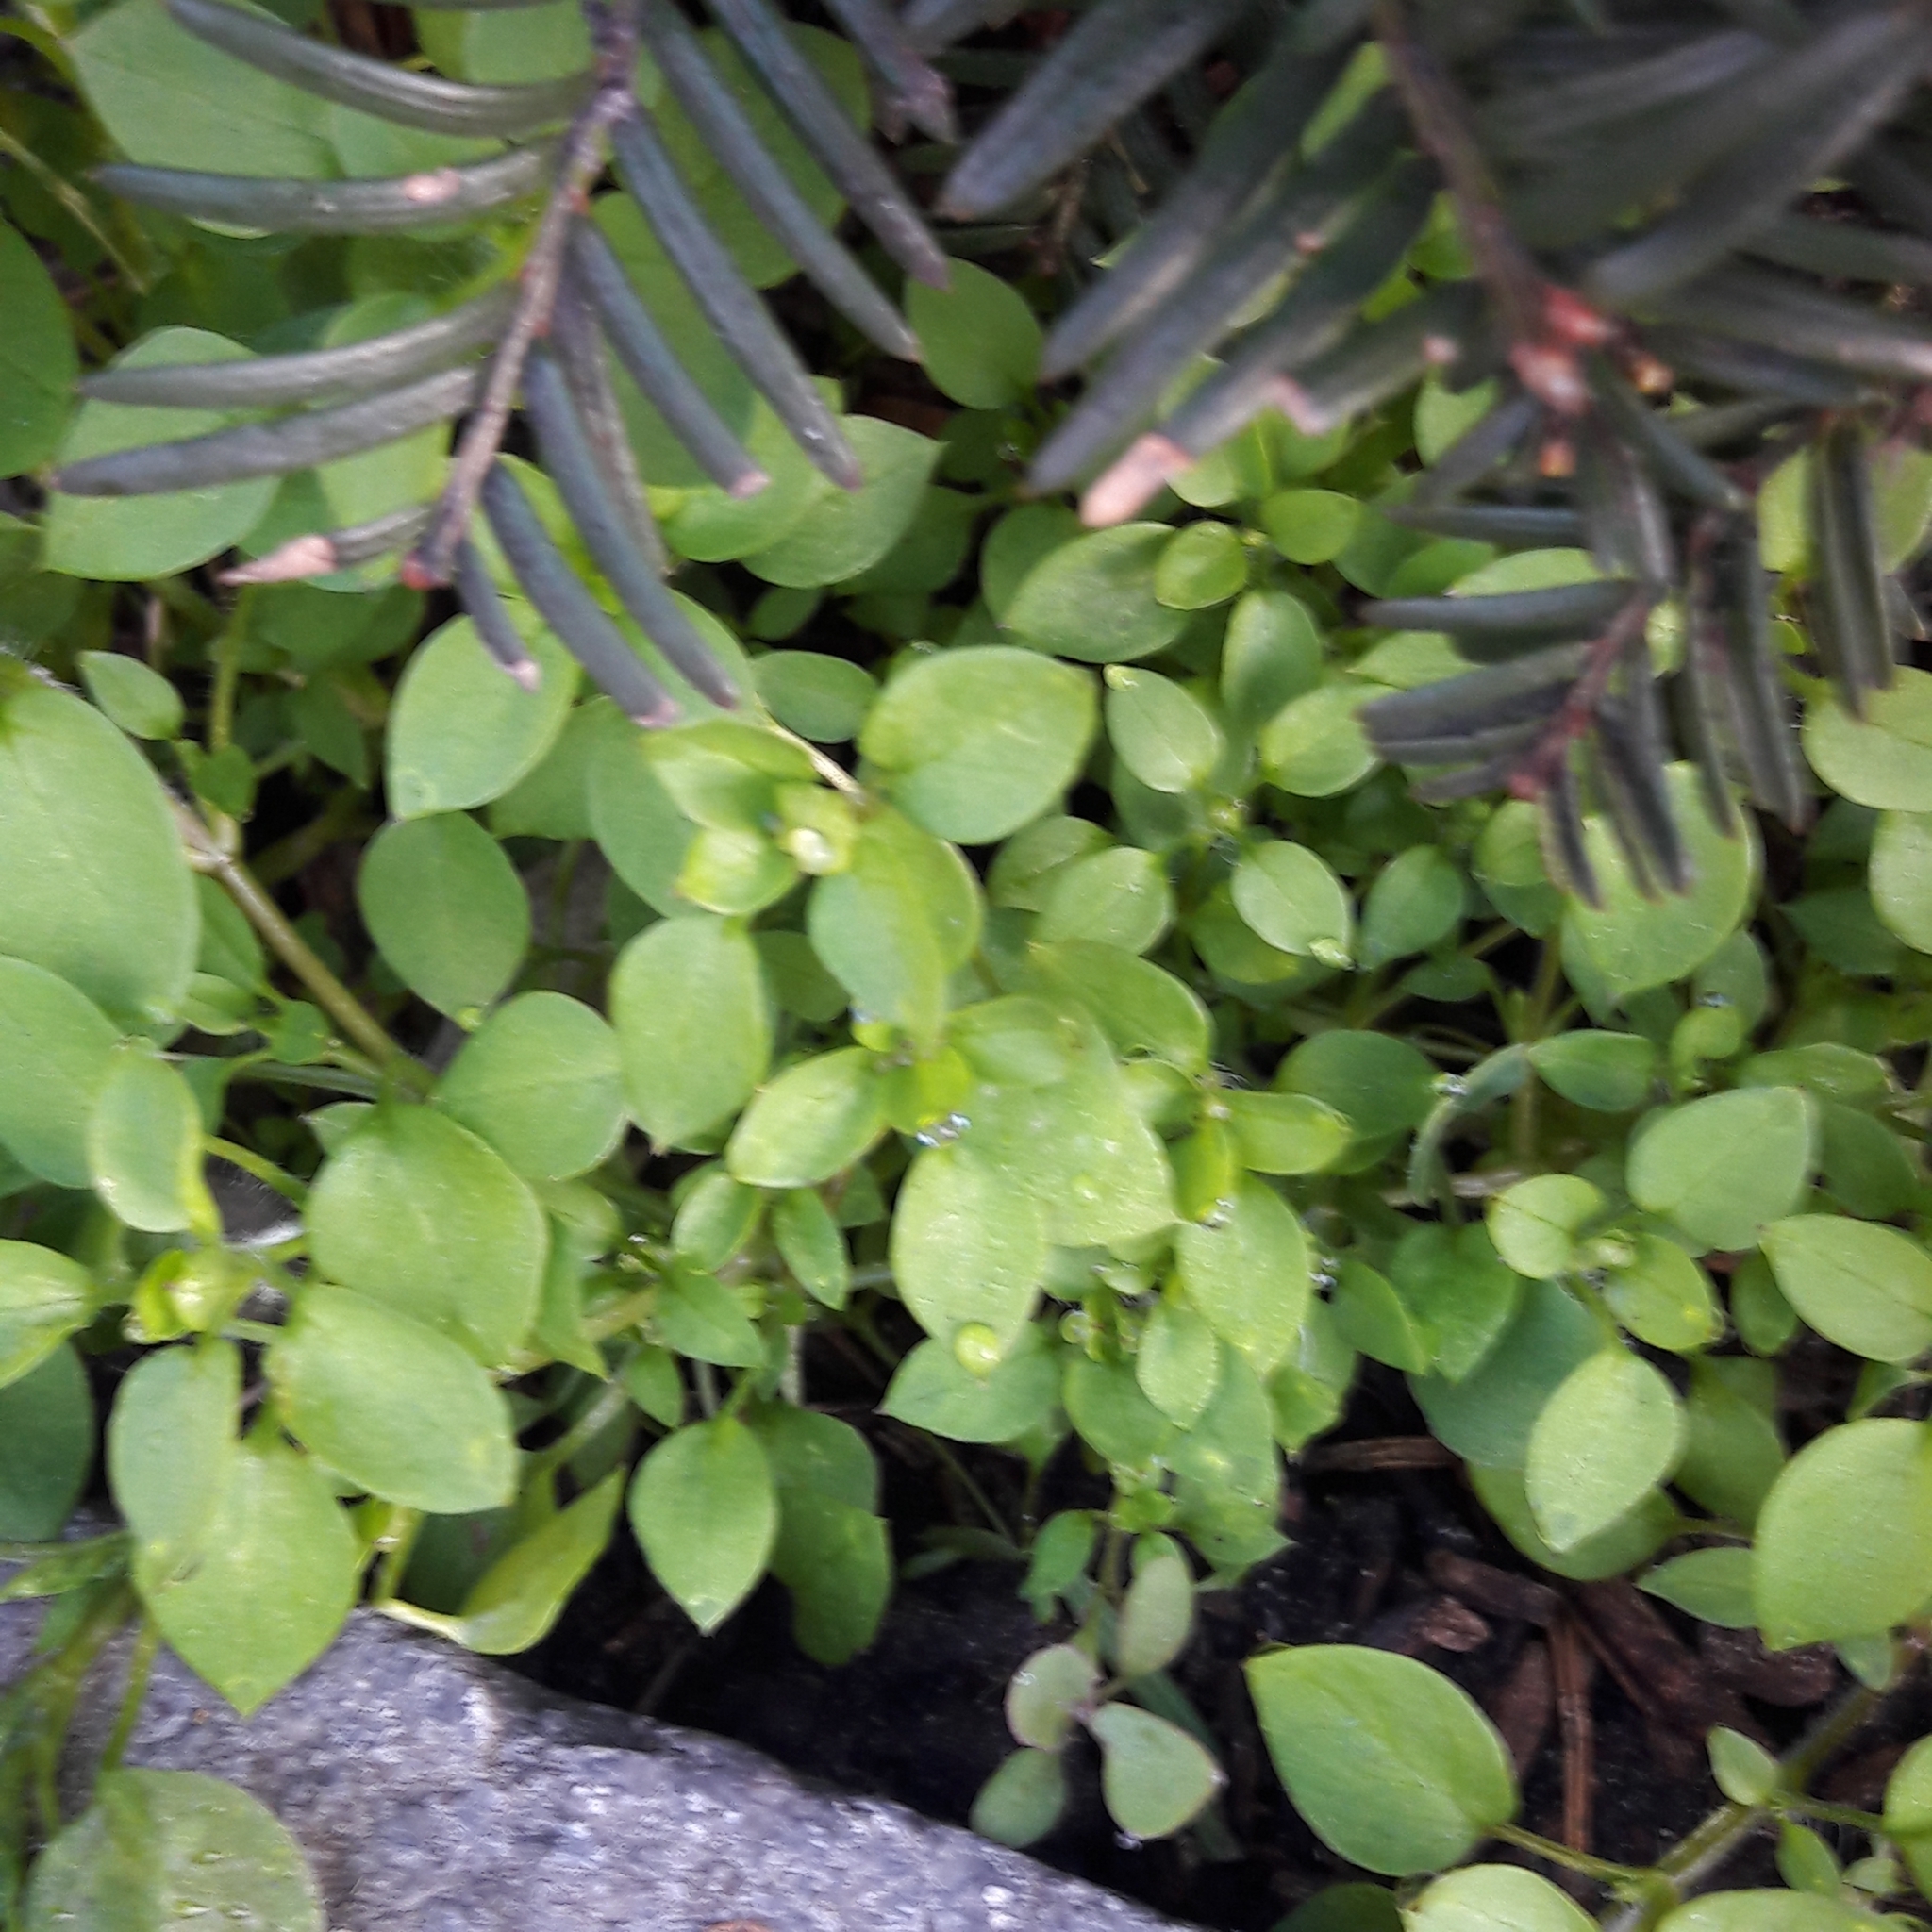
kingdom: Plantae
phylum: Tracheophyta
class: Magnoliopsida
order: Caryophyllales
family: Caryophyllaceae
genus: Stellaria
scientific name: Stellaria media
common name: Common chickweed
